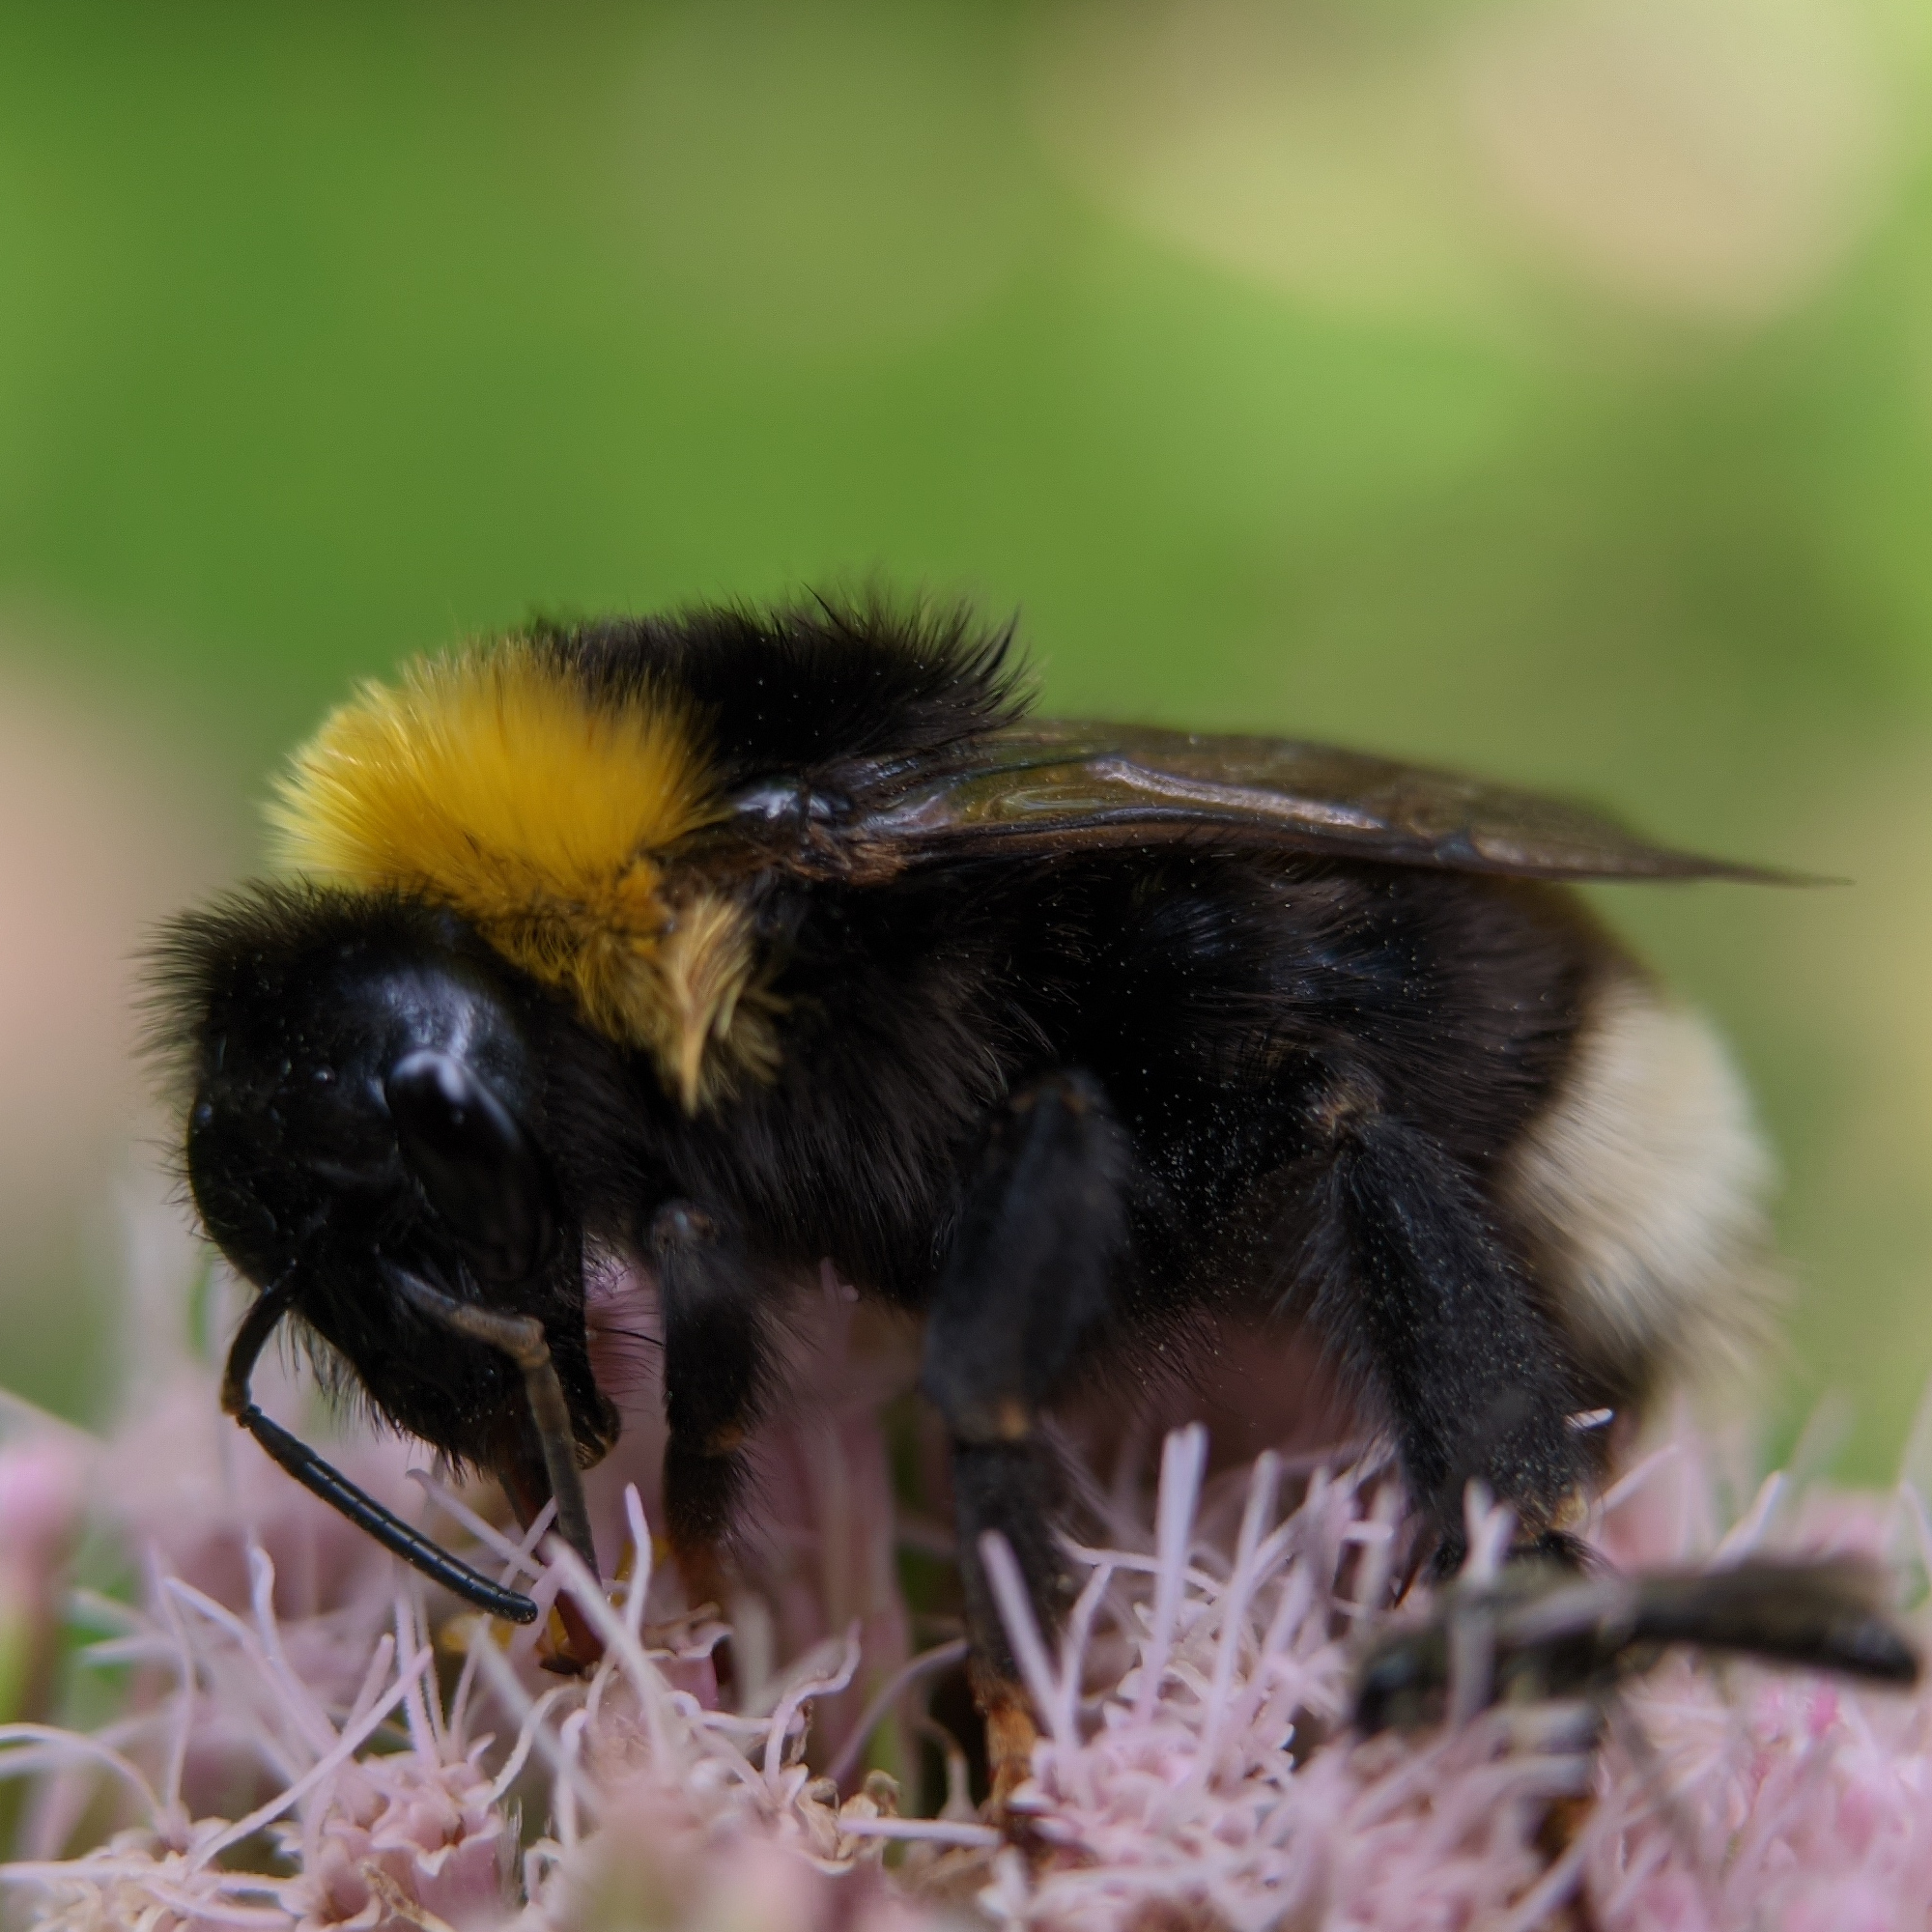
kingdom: Animalia
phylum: Arthropoda
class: Insecta
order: Hymenoptera
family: Apidae
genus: Bombus
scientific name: Bombus bohemicus
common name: Gypsy cuckoo bee
